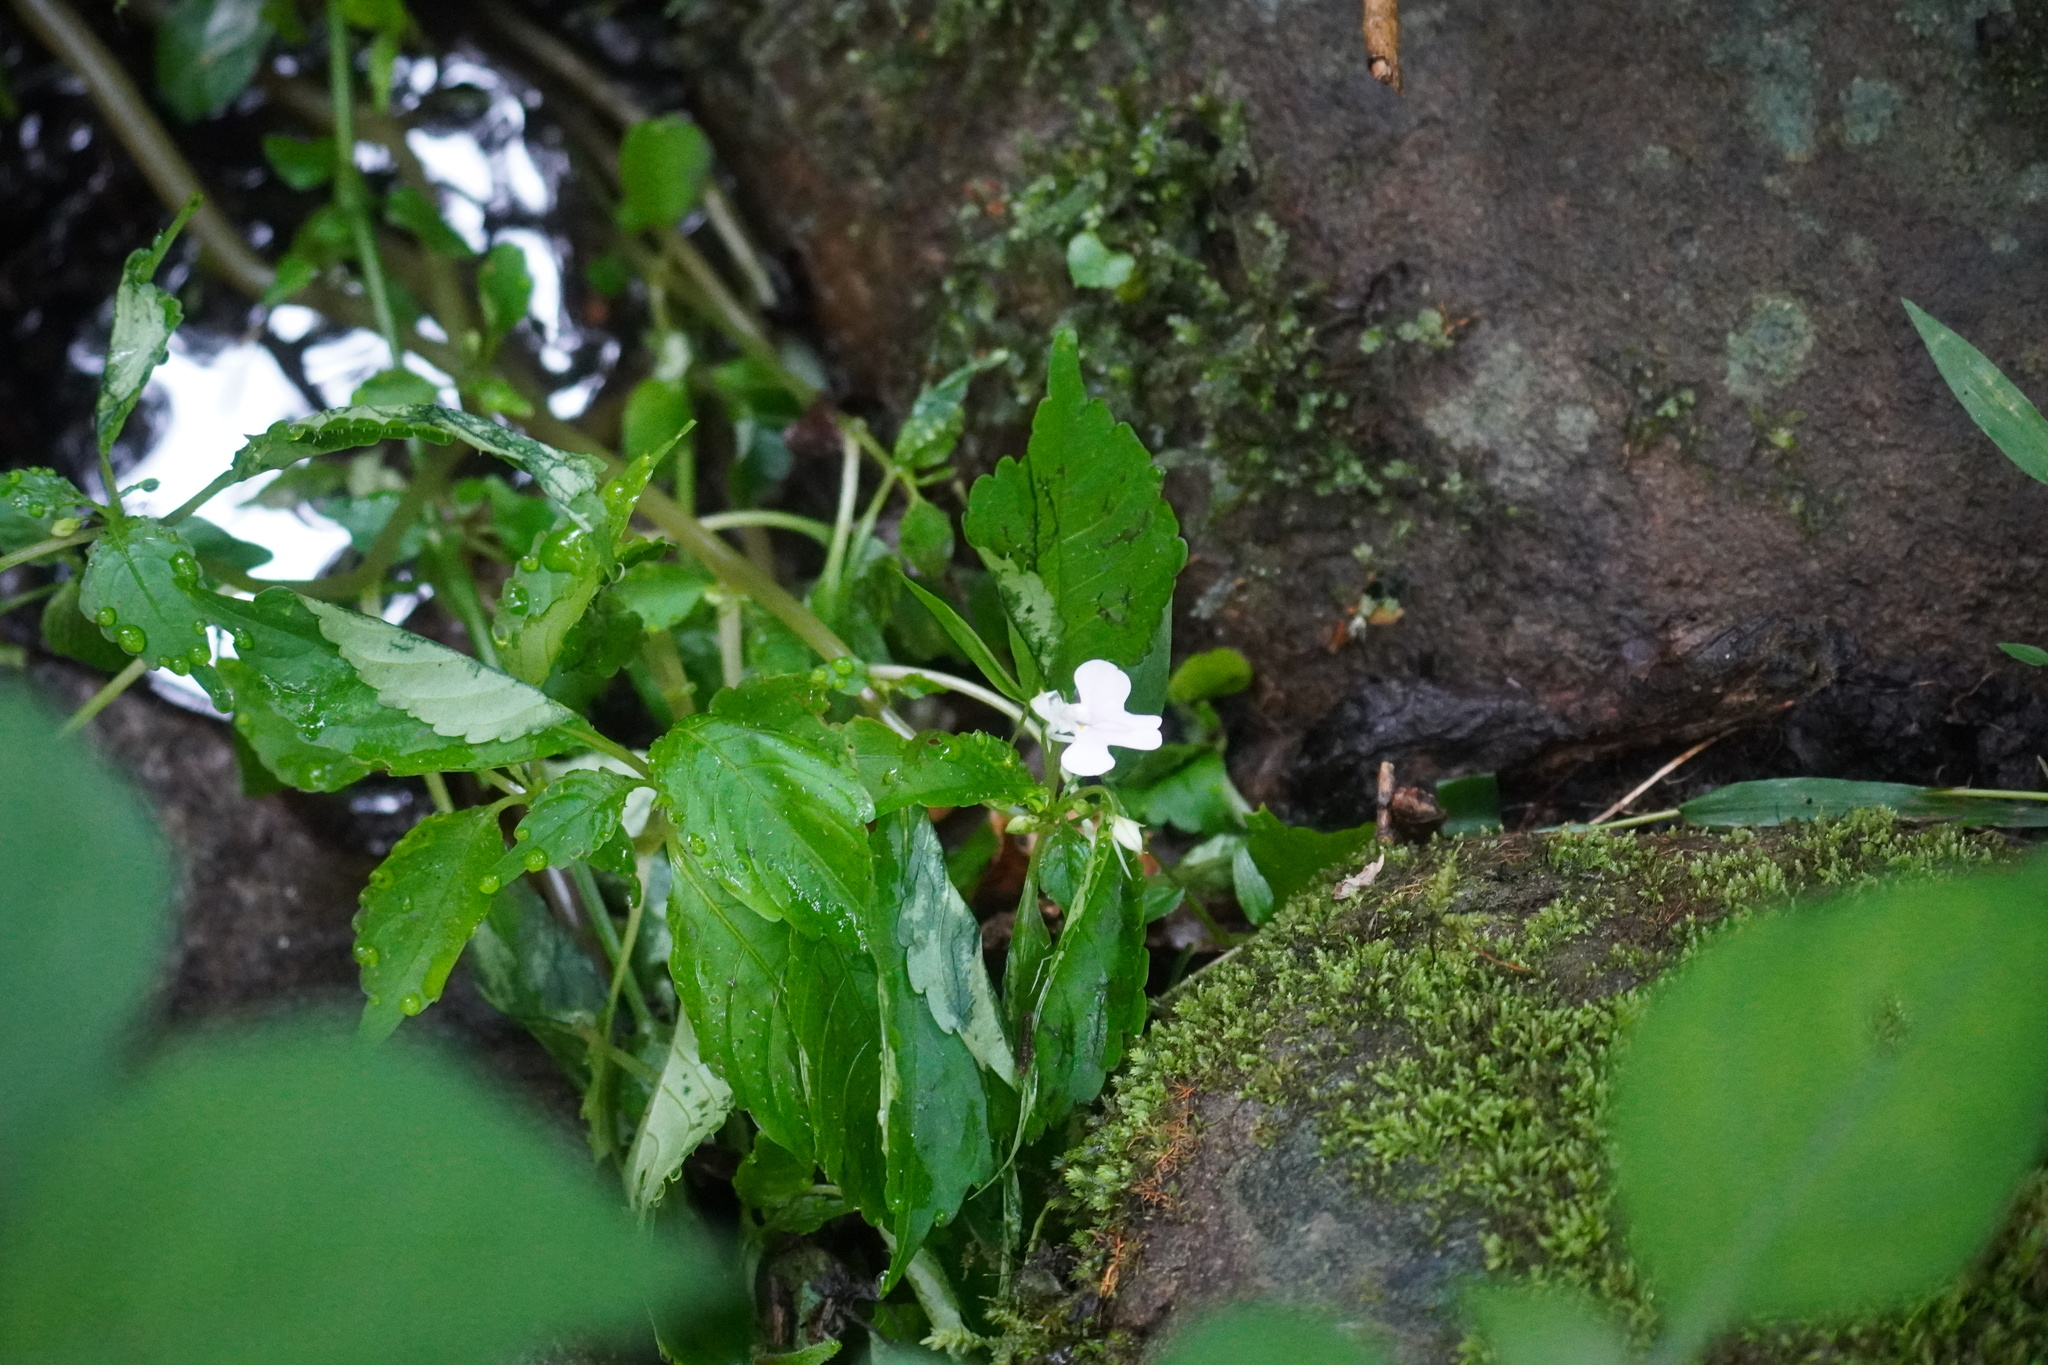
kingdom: Plantae
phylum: Tracheophyta
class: Magnoliopsida
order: Ericales
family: Balsaminaceae
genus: Impatiens
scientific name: Impatiens hochstetteri
